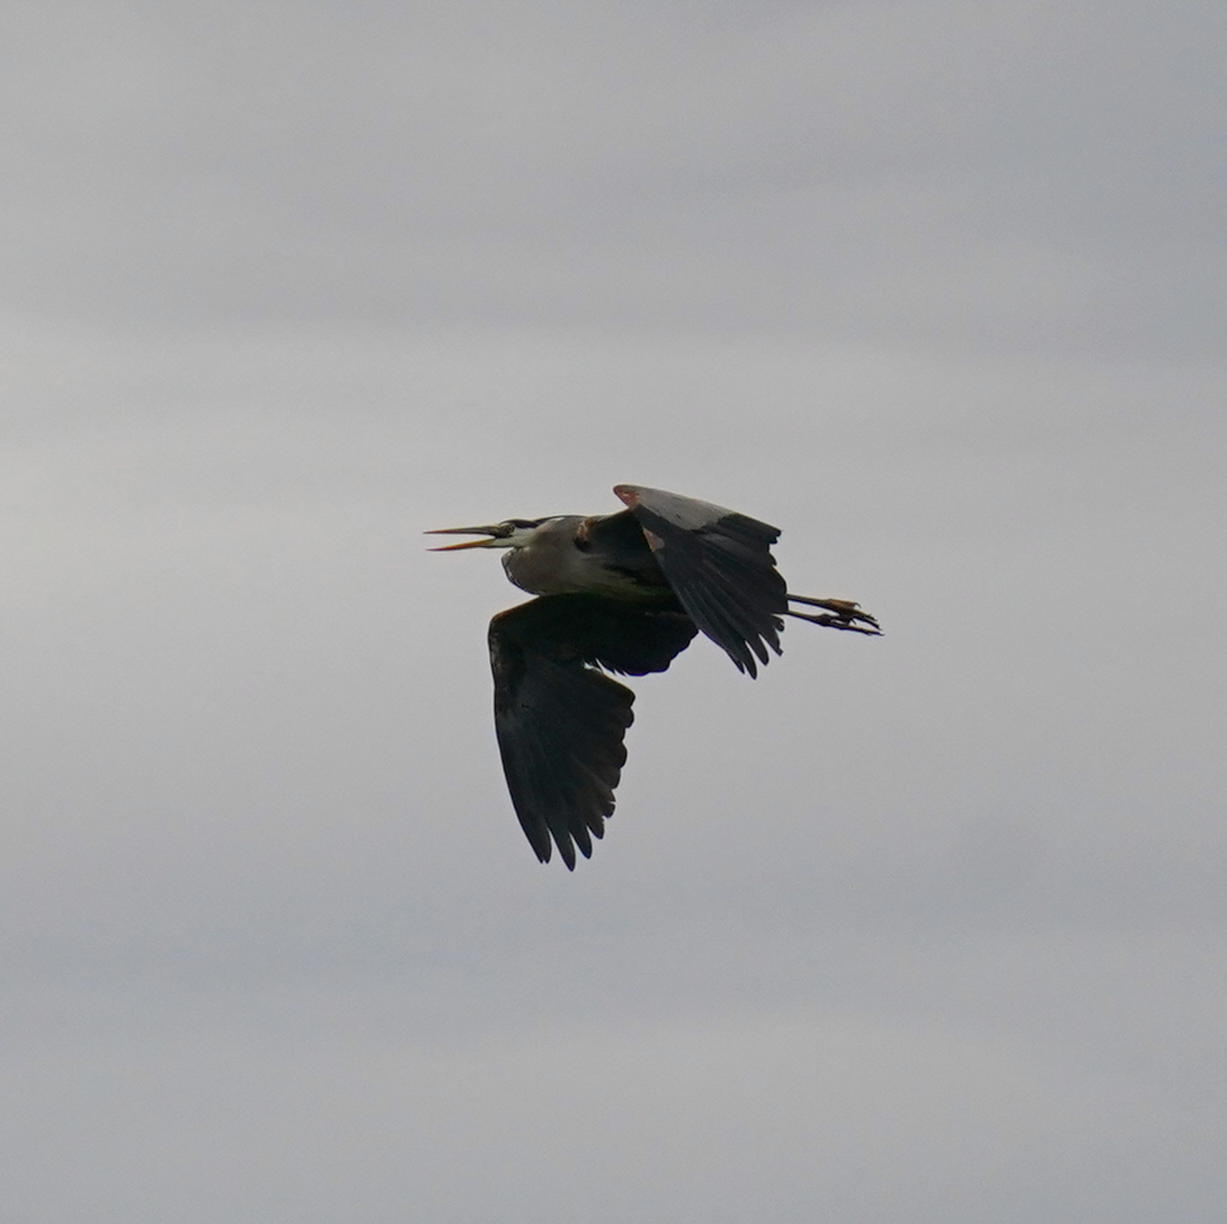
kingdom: Animalia
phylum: Chordata
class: Aves
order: Pelecaniformes
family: Ardeidae
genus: Ardea
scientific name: Ardea herodias
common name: Great blue heron
